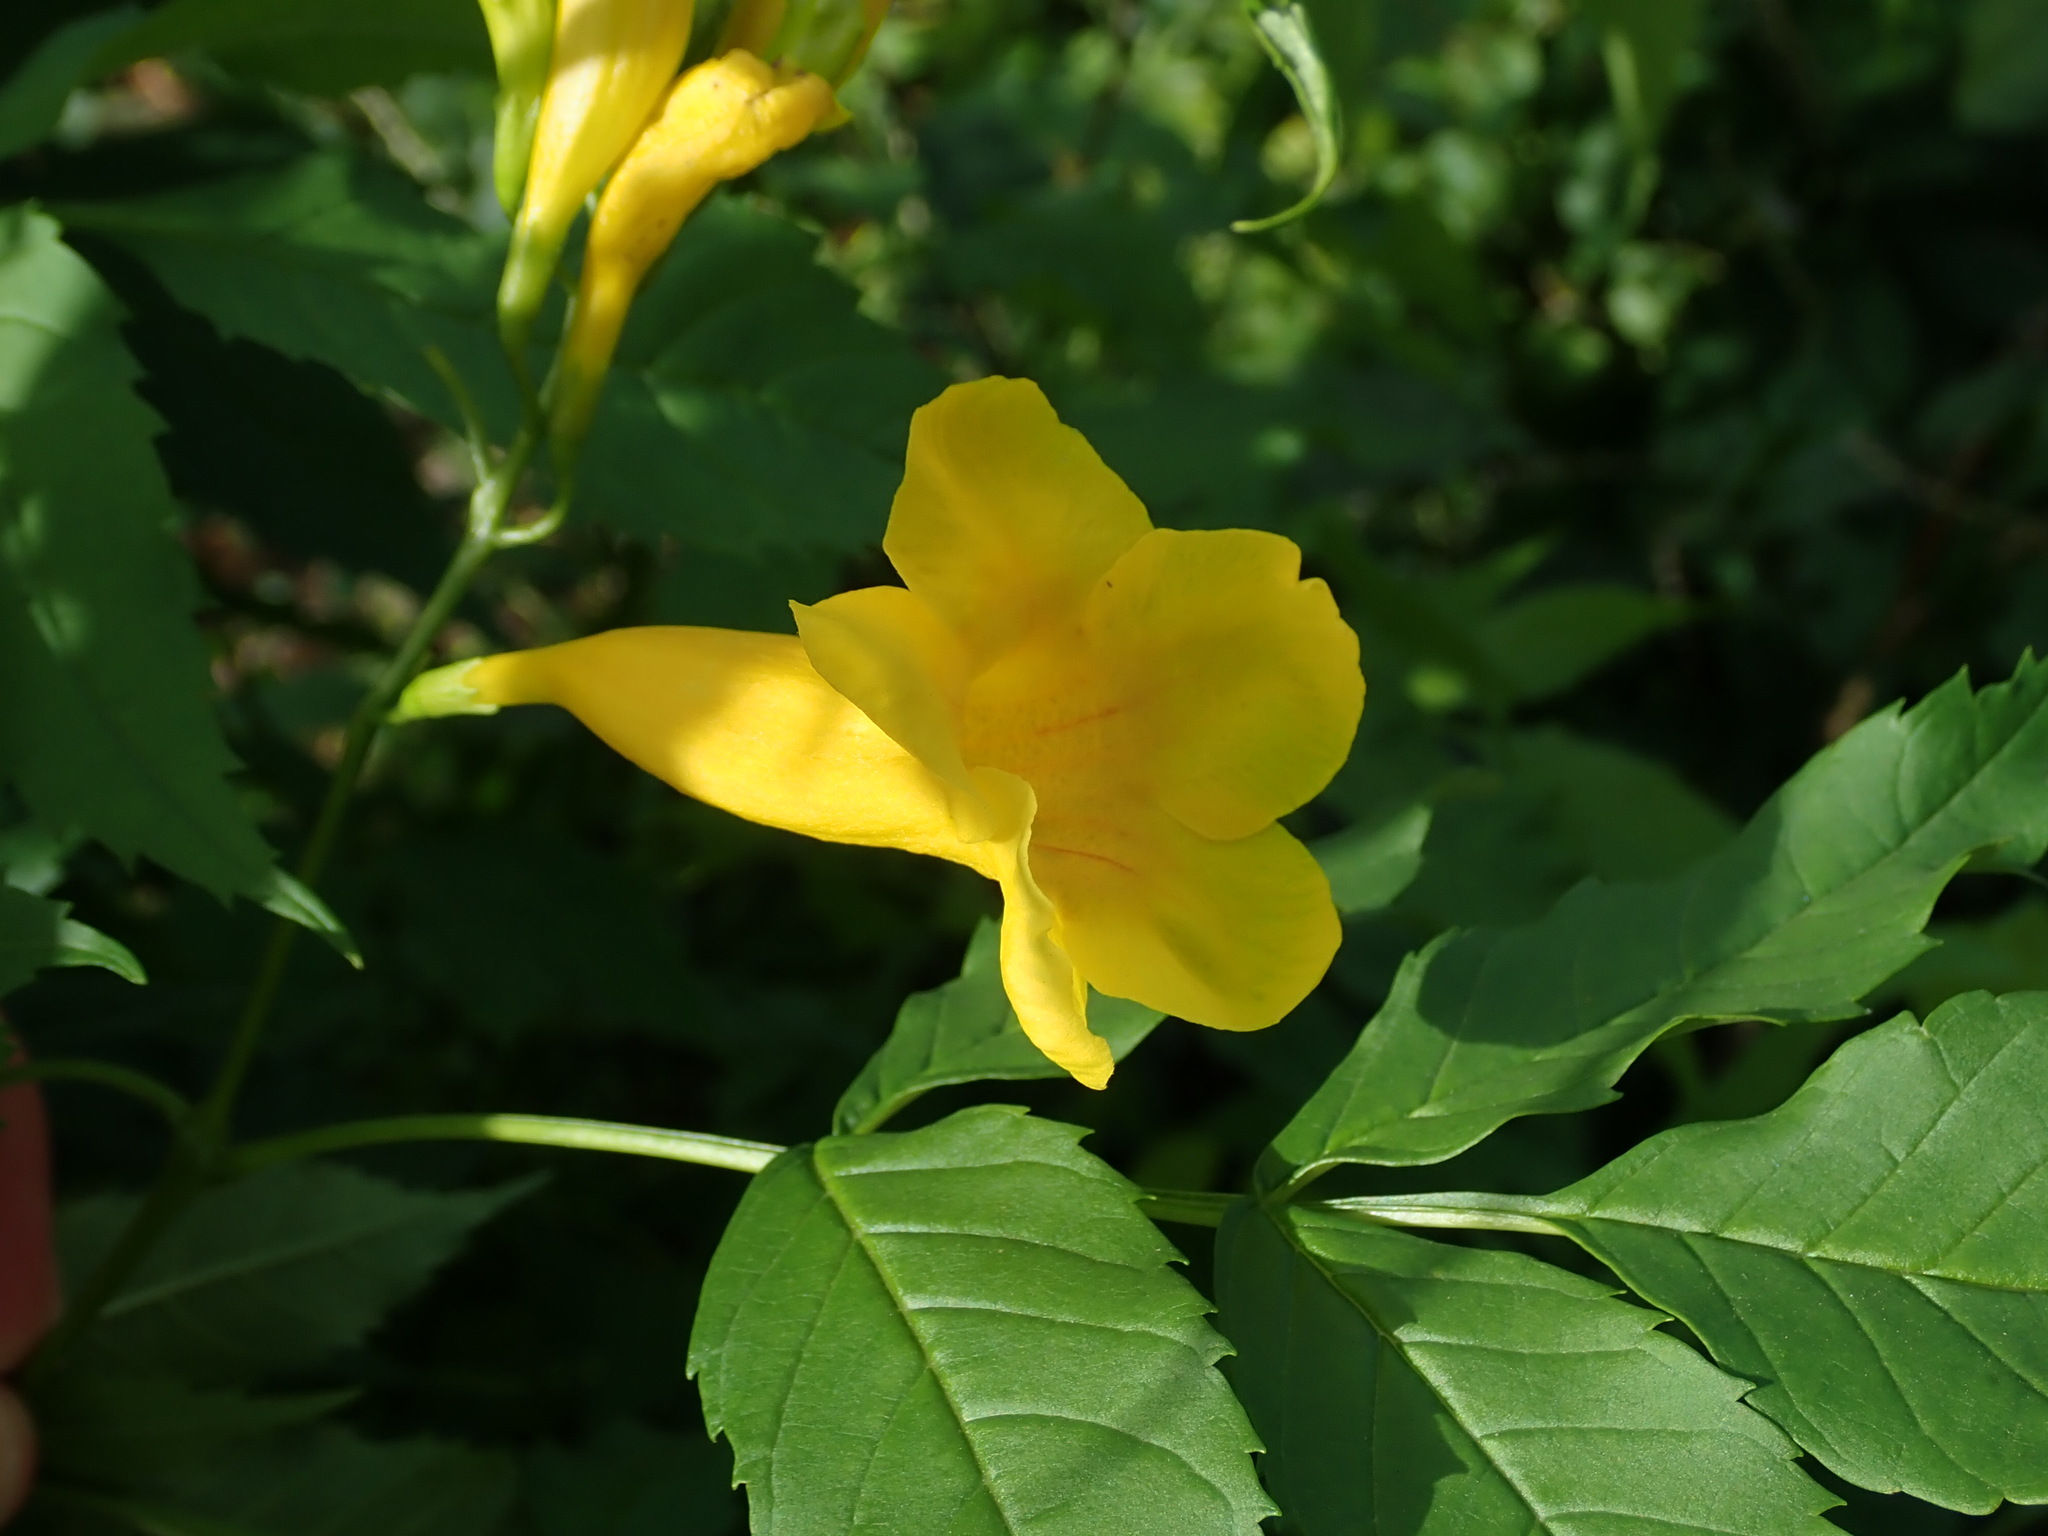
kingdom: Plantae
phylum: Tracheophyta
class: Magnoliopsida
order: Lamiales
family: Bignoniaceae
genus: Tecoma
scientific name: Tecoma stans
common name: Yellow trumpetbush
